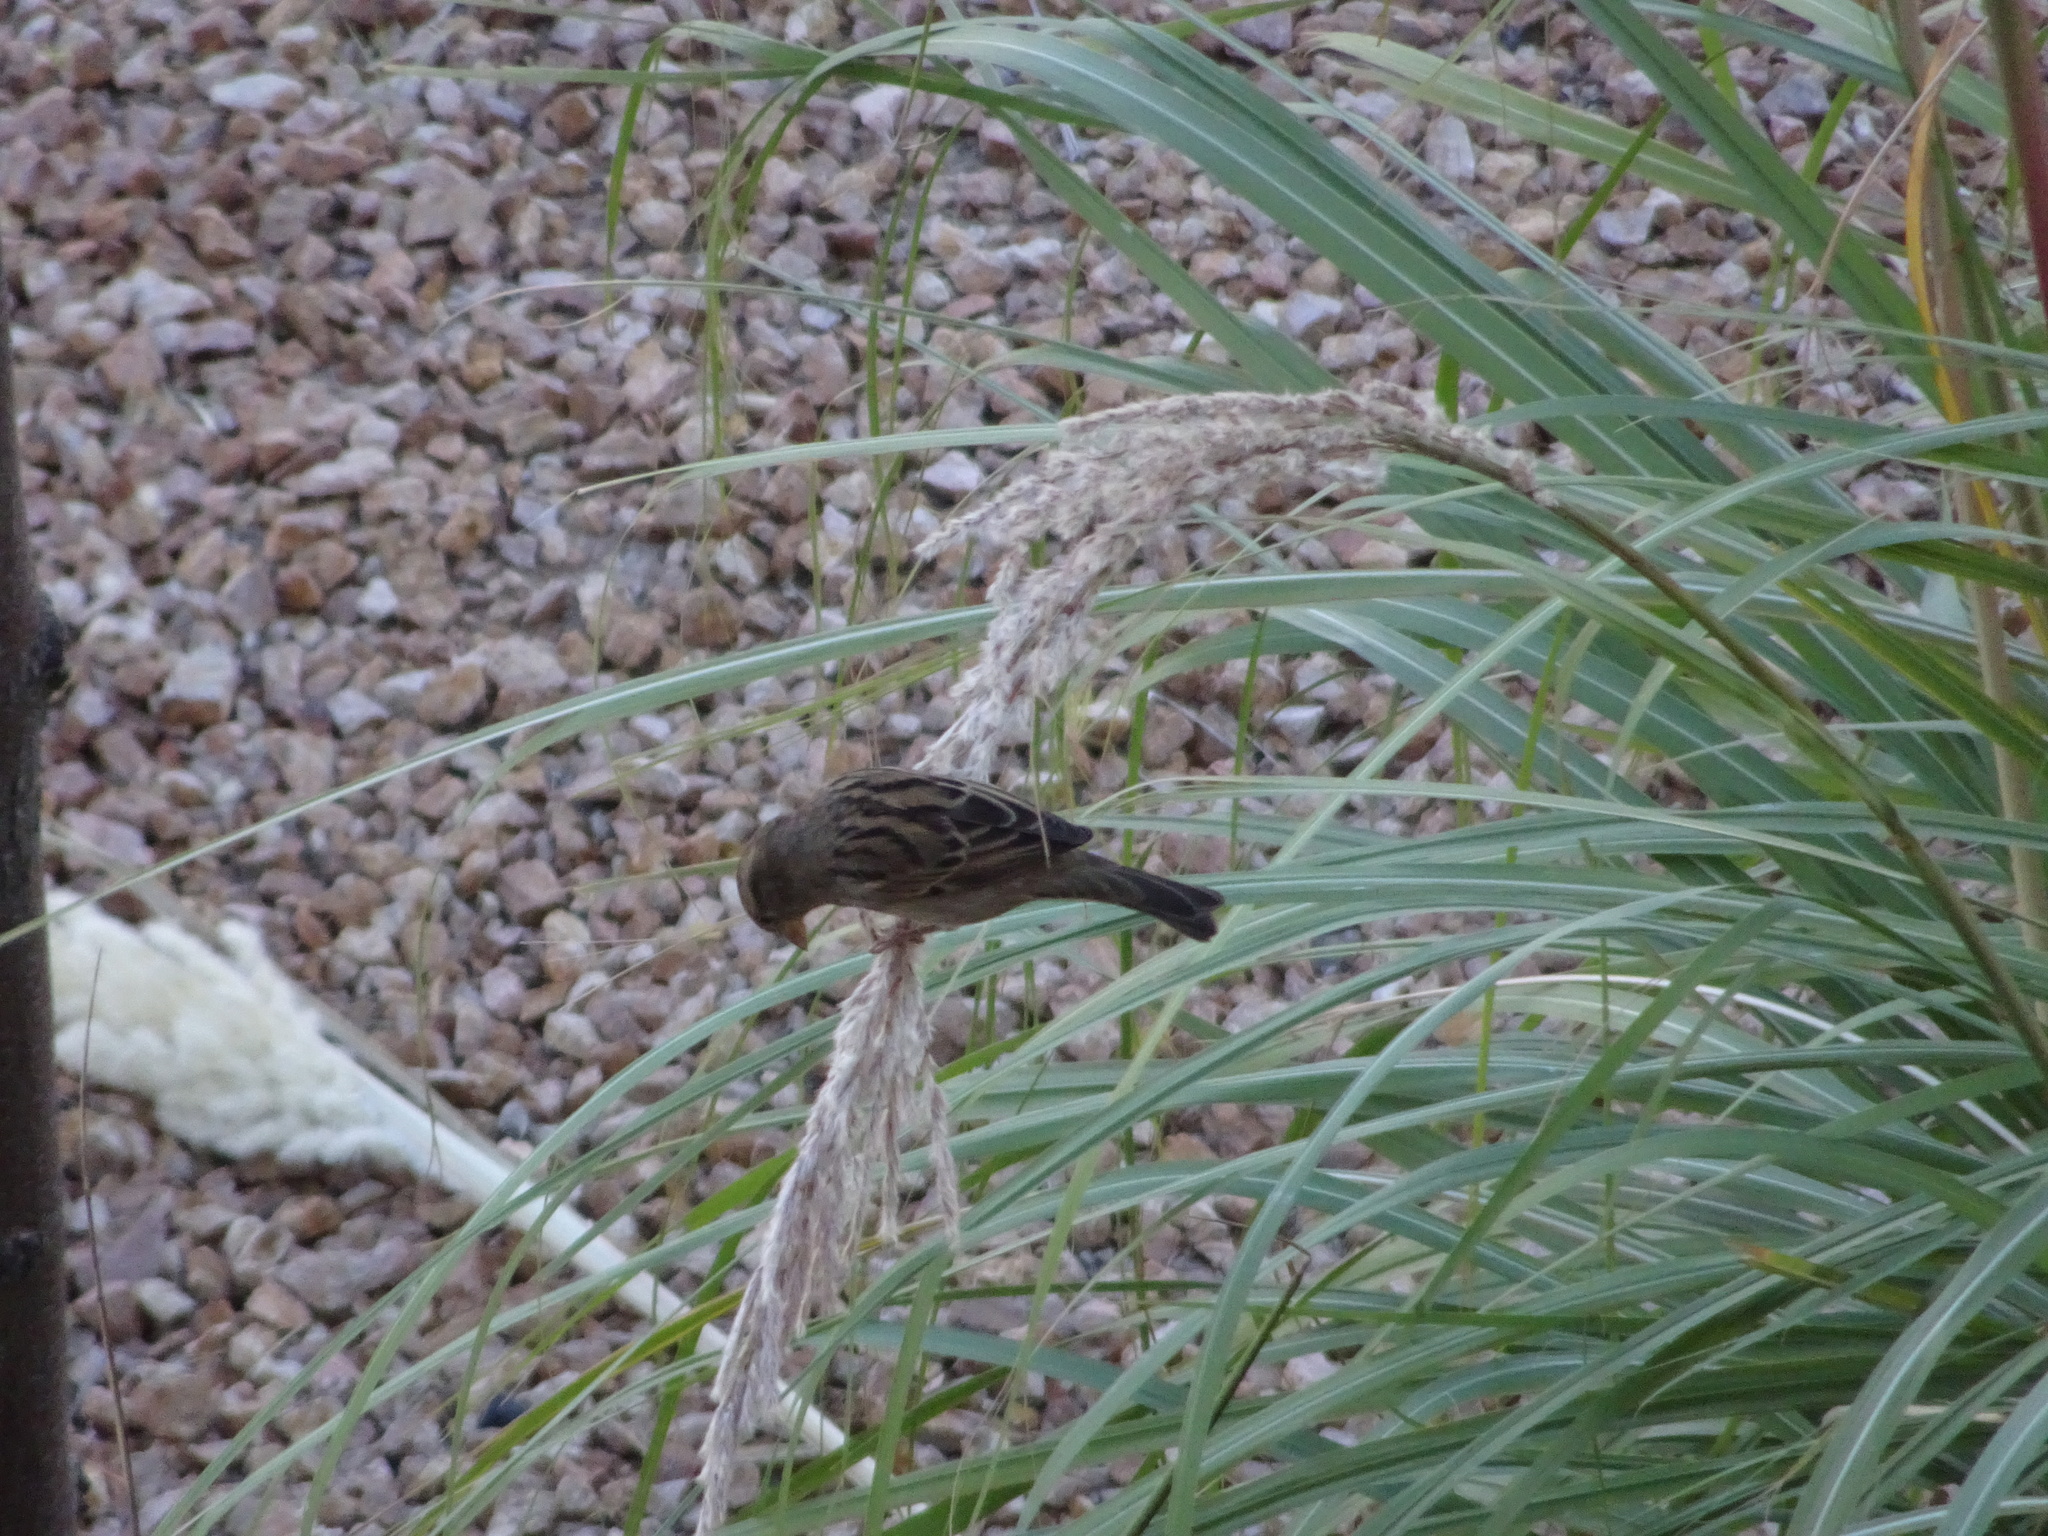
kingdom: Animalia
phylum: Chordata
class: Aves
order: Passeriformes
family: Passeridae
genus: Passer
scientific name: Passer domesticus
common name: House sparrow
